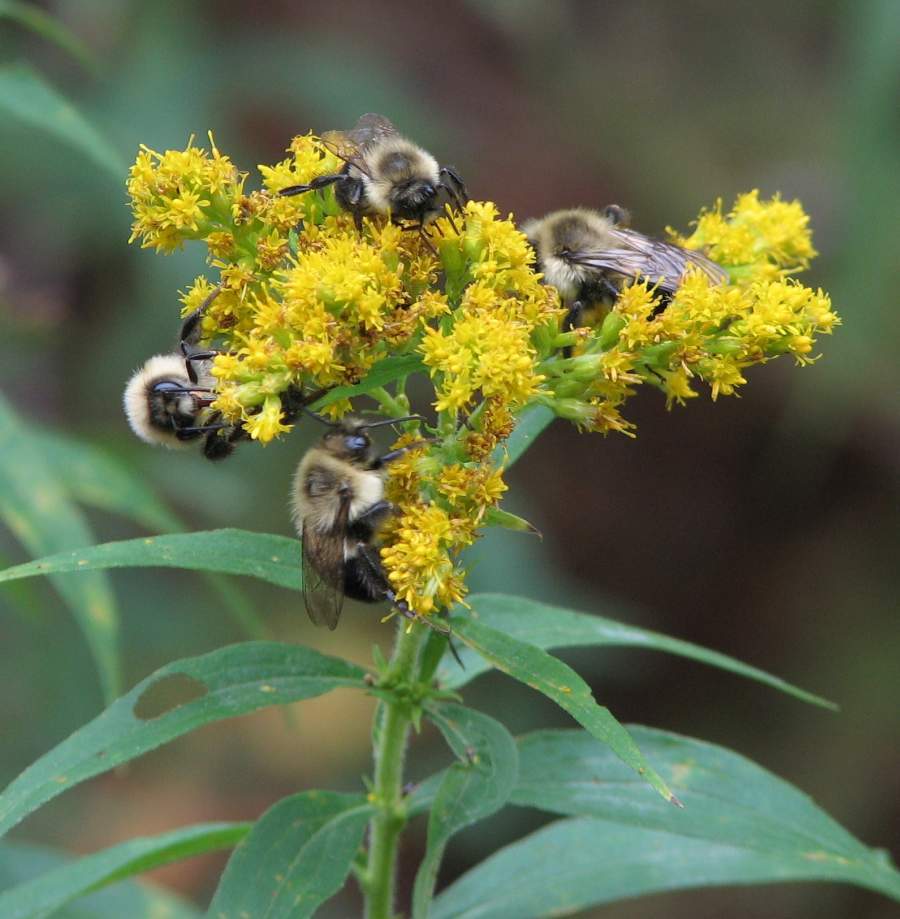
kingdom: Animalia
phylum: Arthropoda
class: Insecta
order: Hymenoptera
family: Apidae
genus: Bombus
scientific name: Bombus impatiens
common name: Common eastern bumble bee
